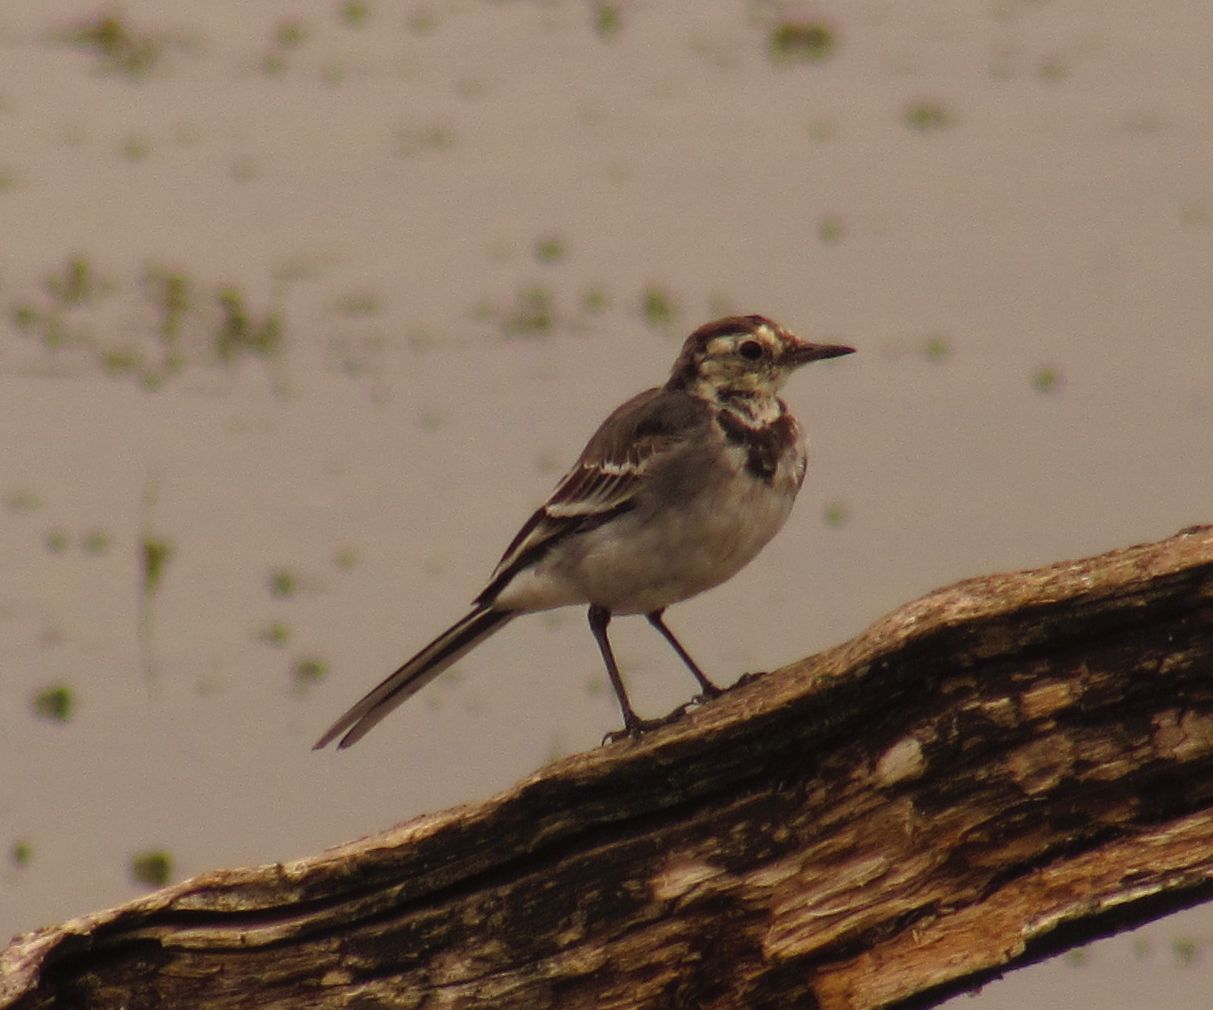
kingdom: Animalia
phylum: Chordata
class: Aves
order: Passeriformes
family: Motacillidae
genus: Motacilla
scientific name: Motacilla alba
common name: White wagtail
